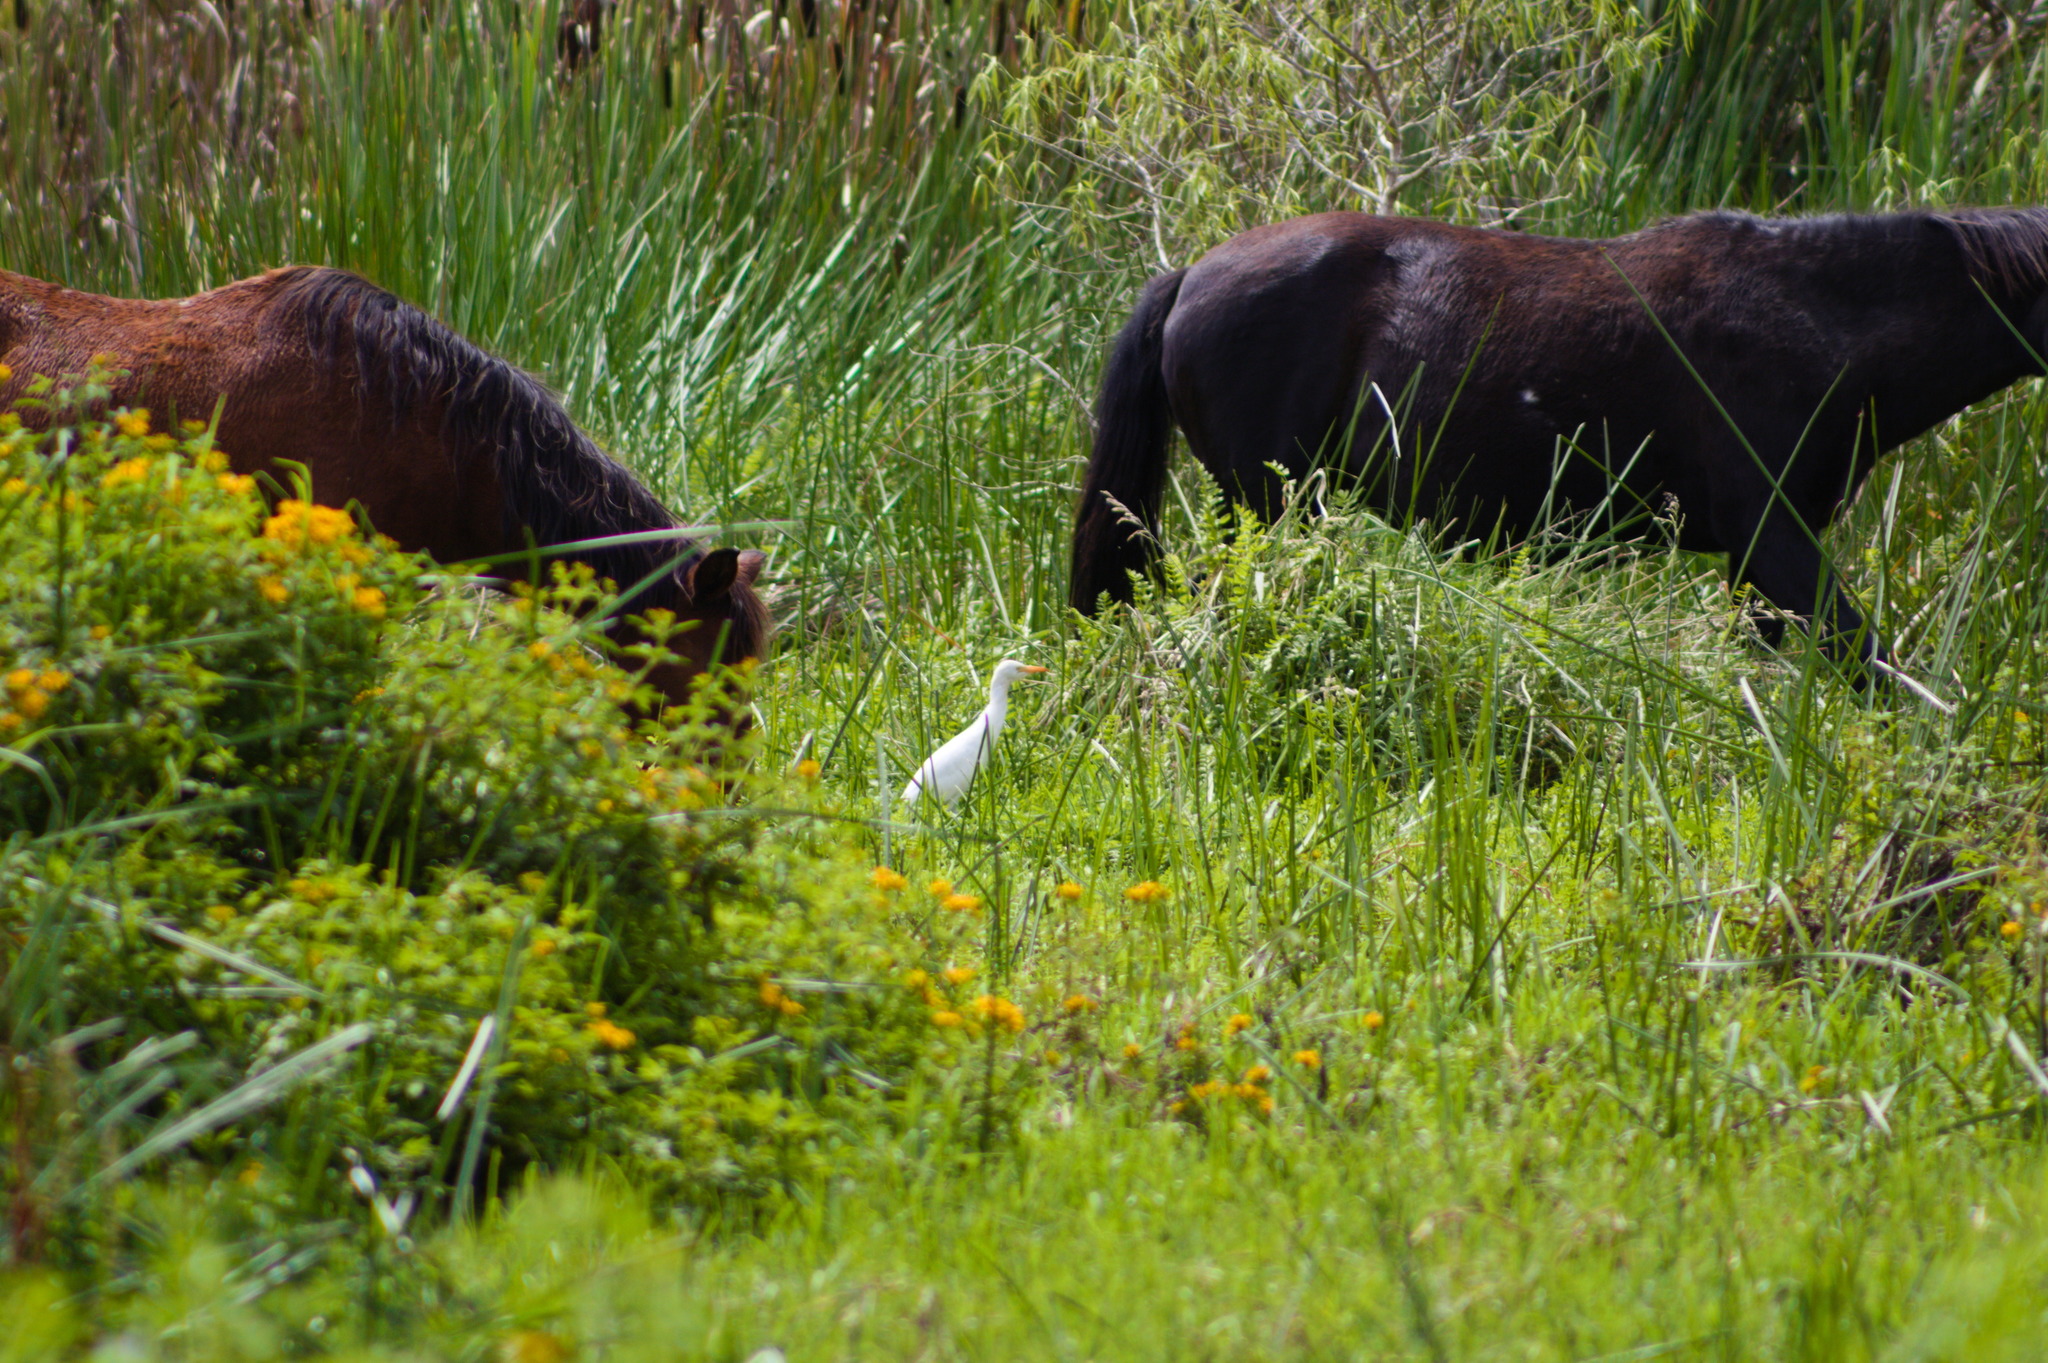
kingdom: Animalia
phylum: Chordata
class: Aves
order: Pelecaniformes
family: Ardeidae
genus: Bubulcus
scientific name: Bubulcus ibis
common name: Cattle egret
